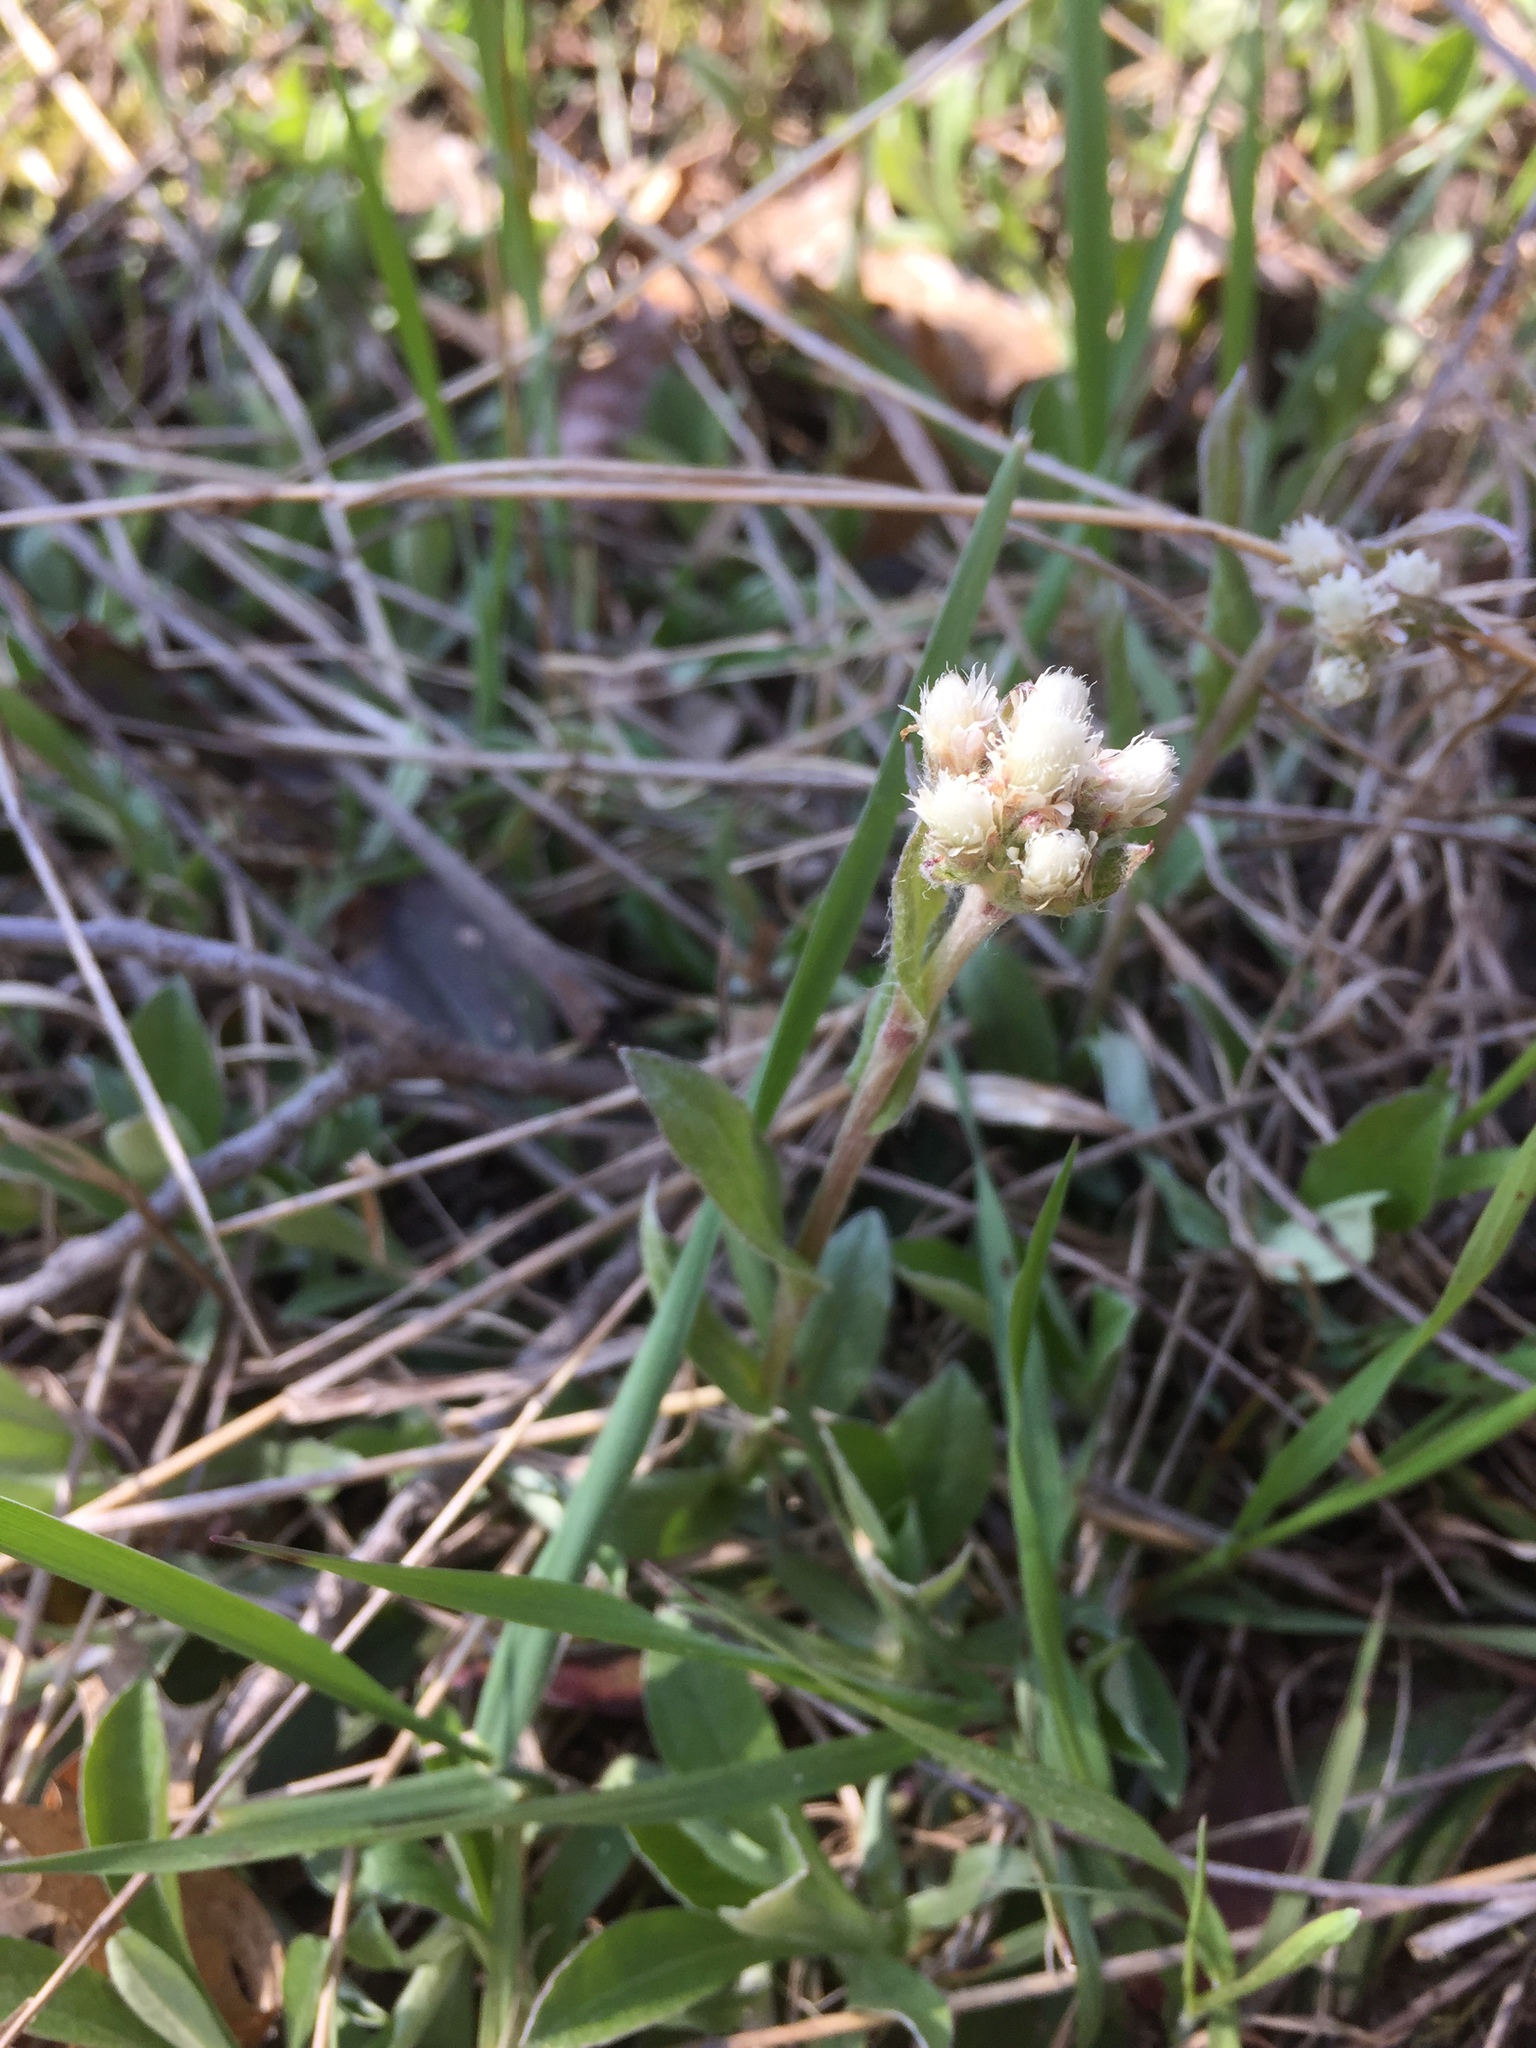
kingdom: Plantae
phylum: Tracheophyta
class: Magnoliopsida
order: Asterales
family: Asteraceae
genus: Antennaria
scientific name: Antennaria neglecta
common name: Field pussytoes
